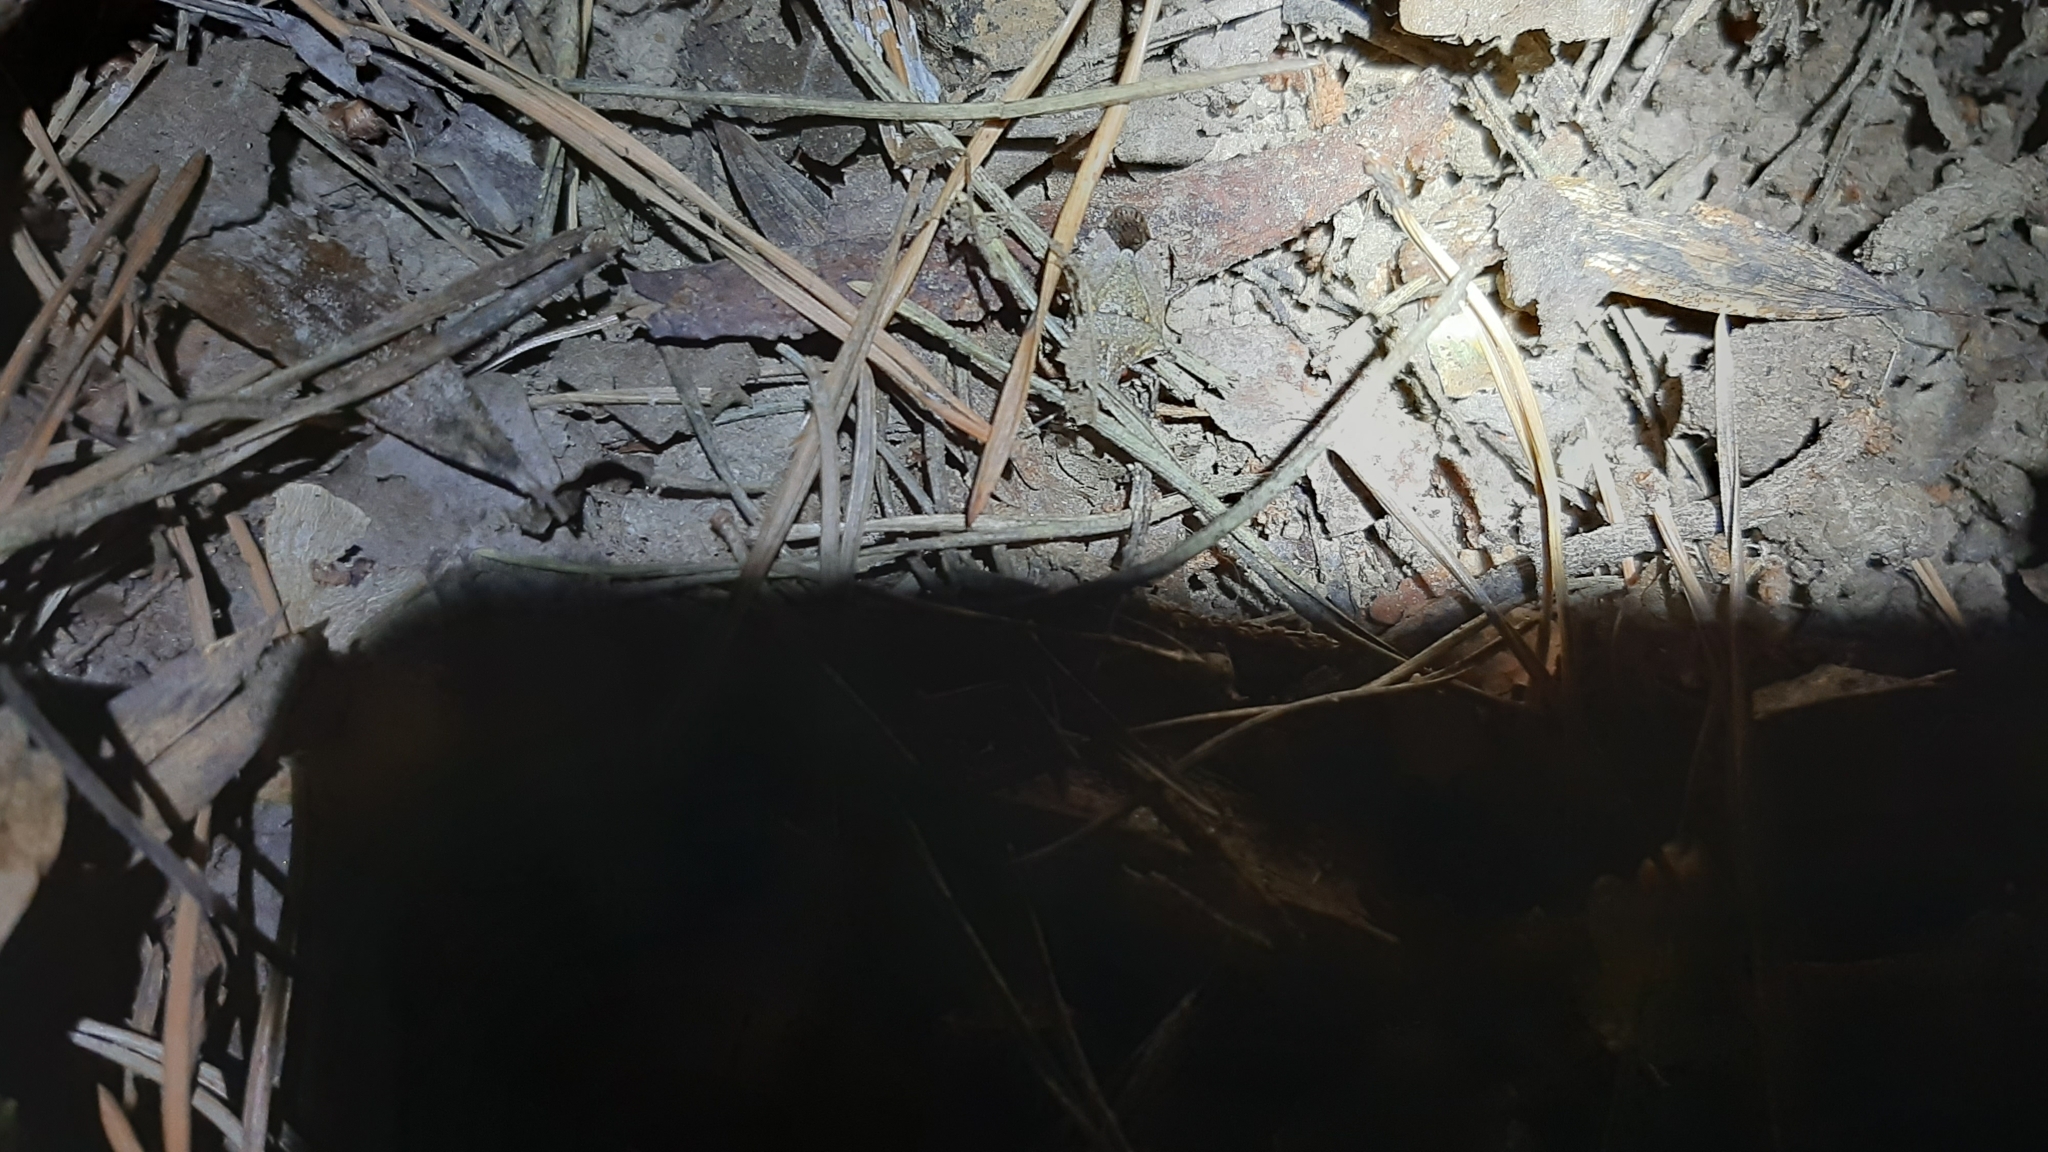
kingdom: Animalia
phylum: Arthropoda
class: Insecta
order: Hemiptera
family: Pentatomidae
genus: Halyomorpha
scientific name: Halyomorpha halys
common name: Brown marmorated stink bug
